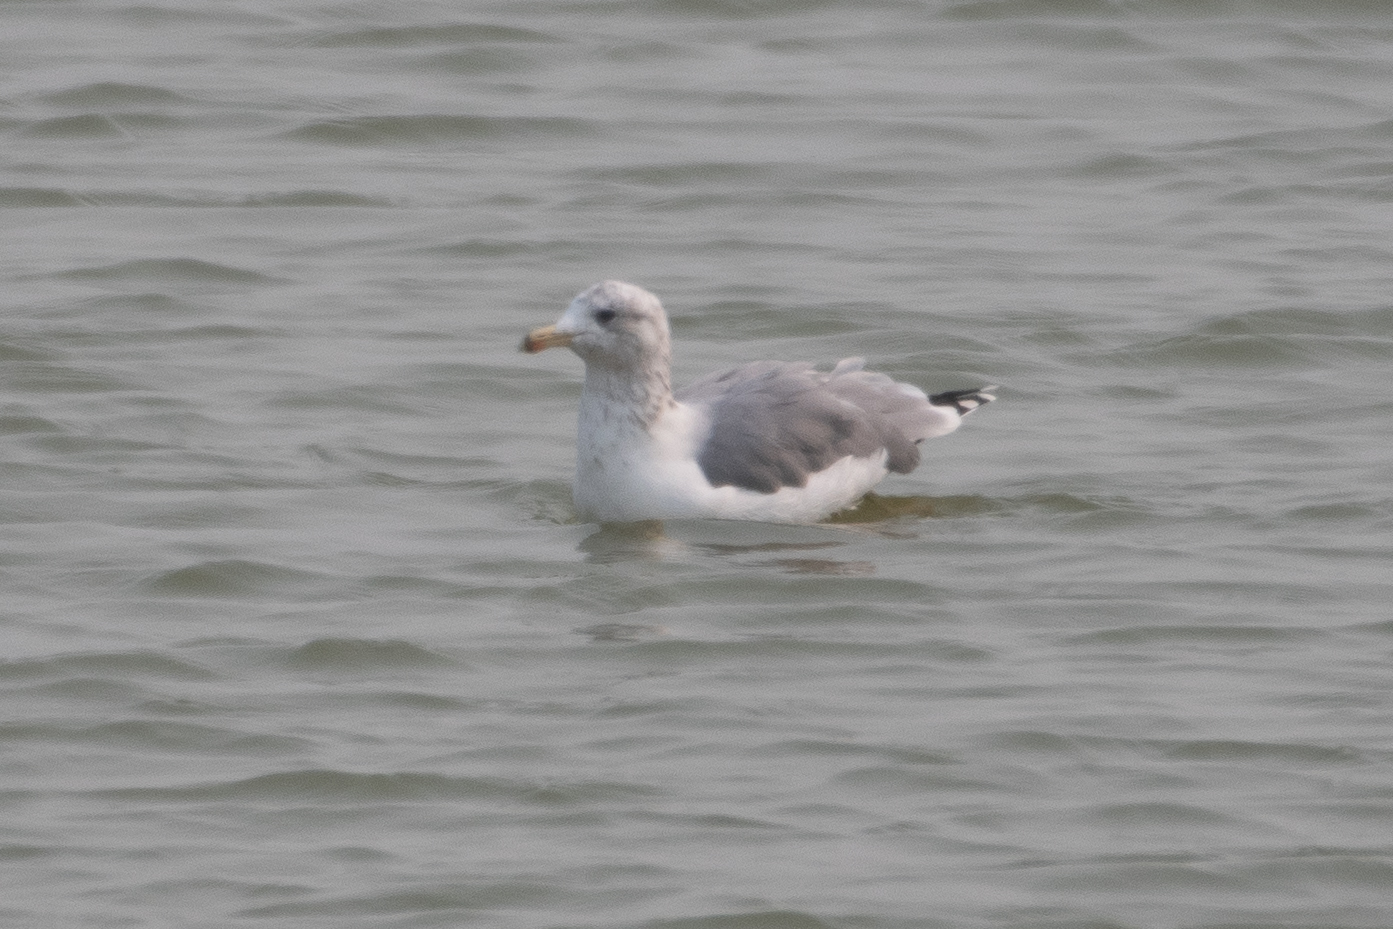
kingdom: Animalia
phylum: Chordata
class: Aves
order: Charadriiformes
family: Laridae
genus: Larus
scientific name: Larus californicus
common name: California gull
